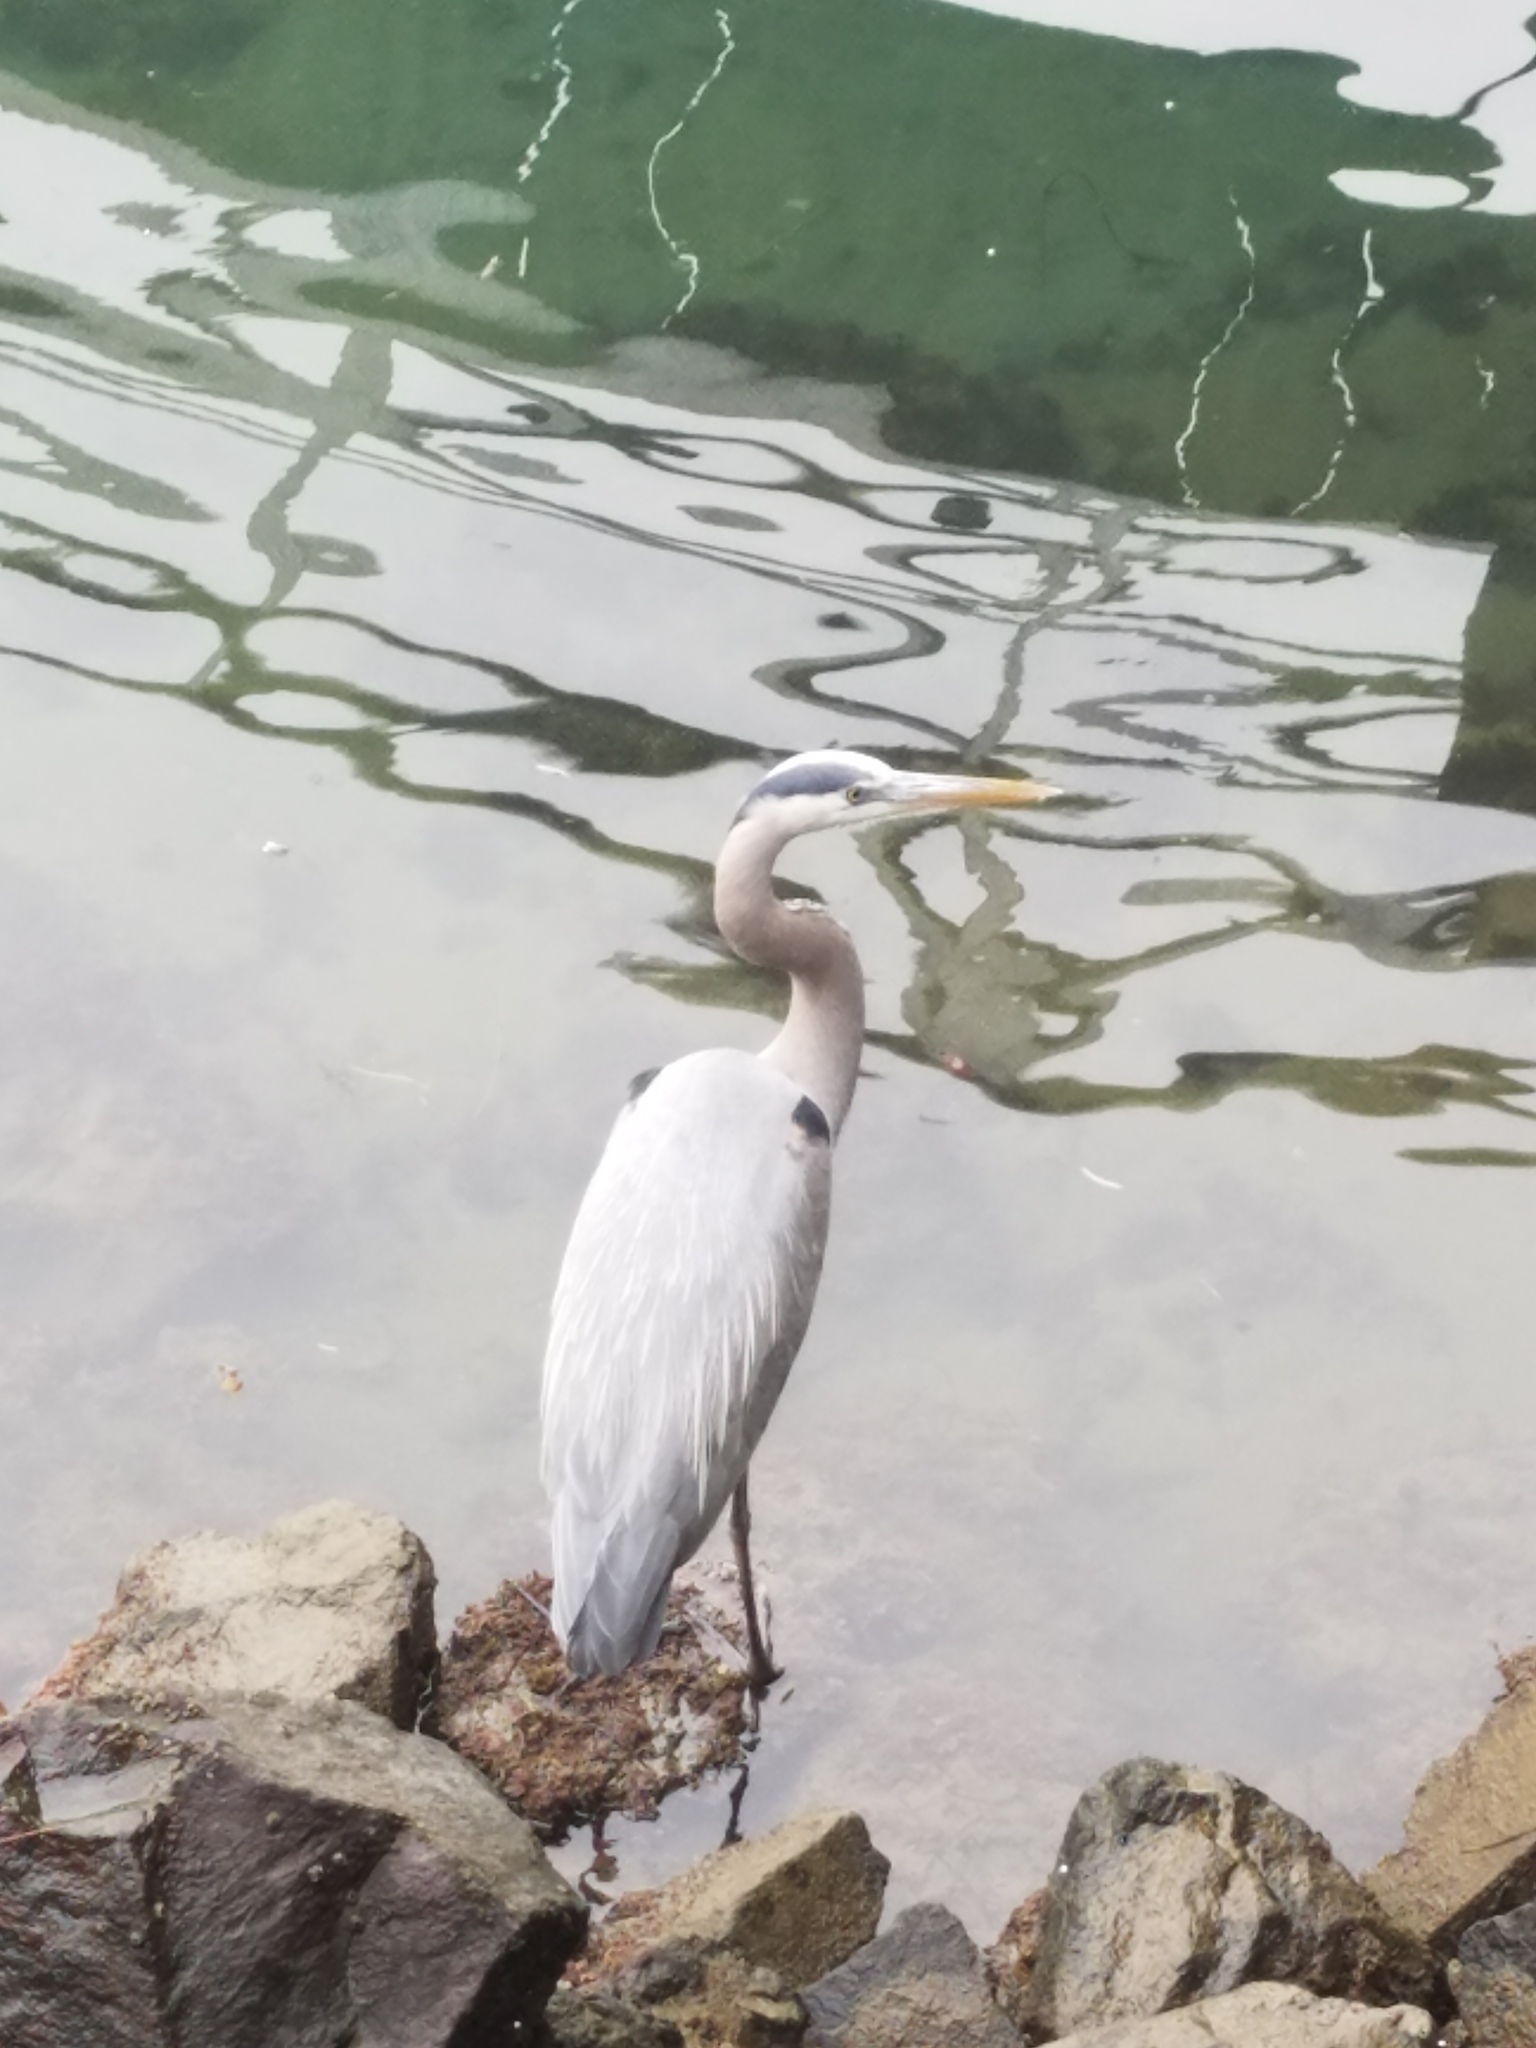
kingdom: Animalia
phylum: Chordata
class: Aves
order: Pelecaniformes
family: Ardeidae
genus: Ardea
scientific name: Ardea herodias
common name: Great blue heron
